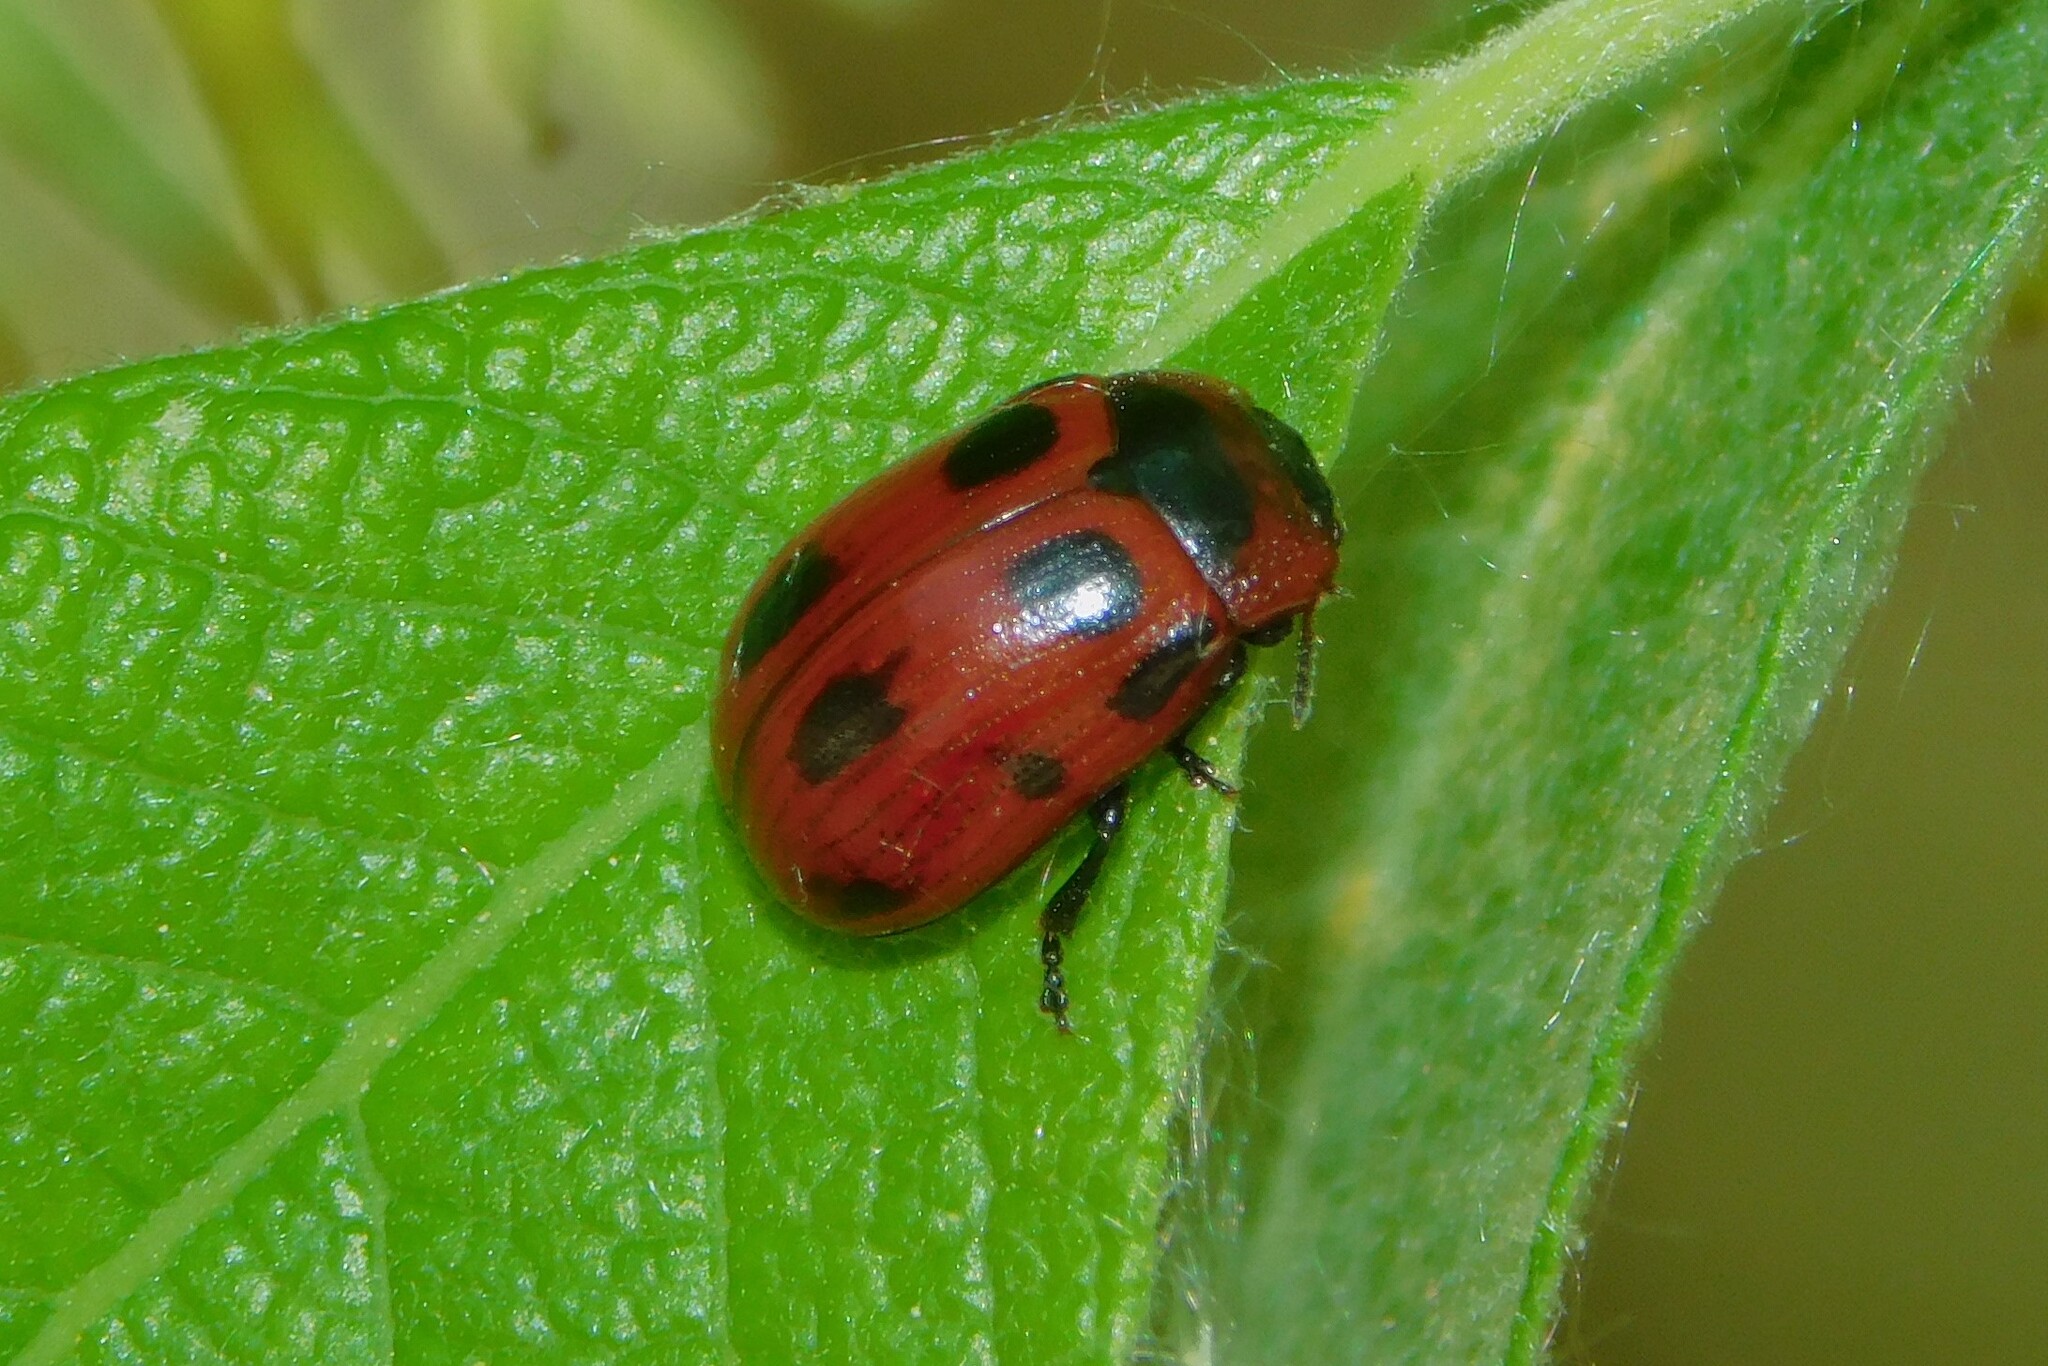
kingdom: Animalia
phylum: Arthropoda
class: Insecta
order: Coleoptera
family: Chrysomelidae
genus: Gonioctena
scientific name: Gonioctena viminalis
